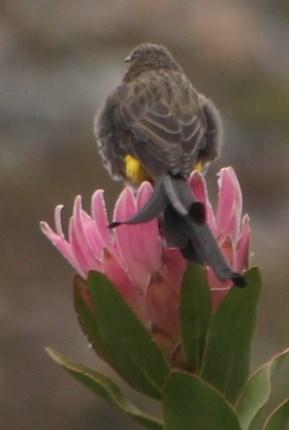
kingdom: Animalia
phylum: Chordata
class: Aves
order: Passeriformes
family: Promeropidae
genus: Promerops
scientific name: Promerops cafer
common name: Cape sugarbird
